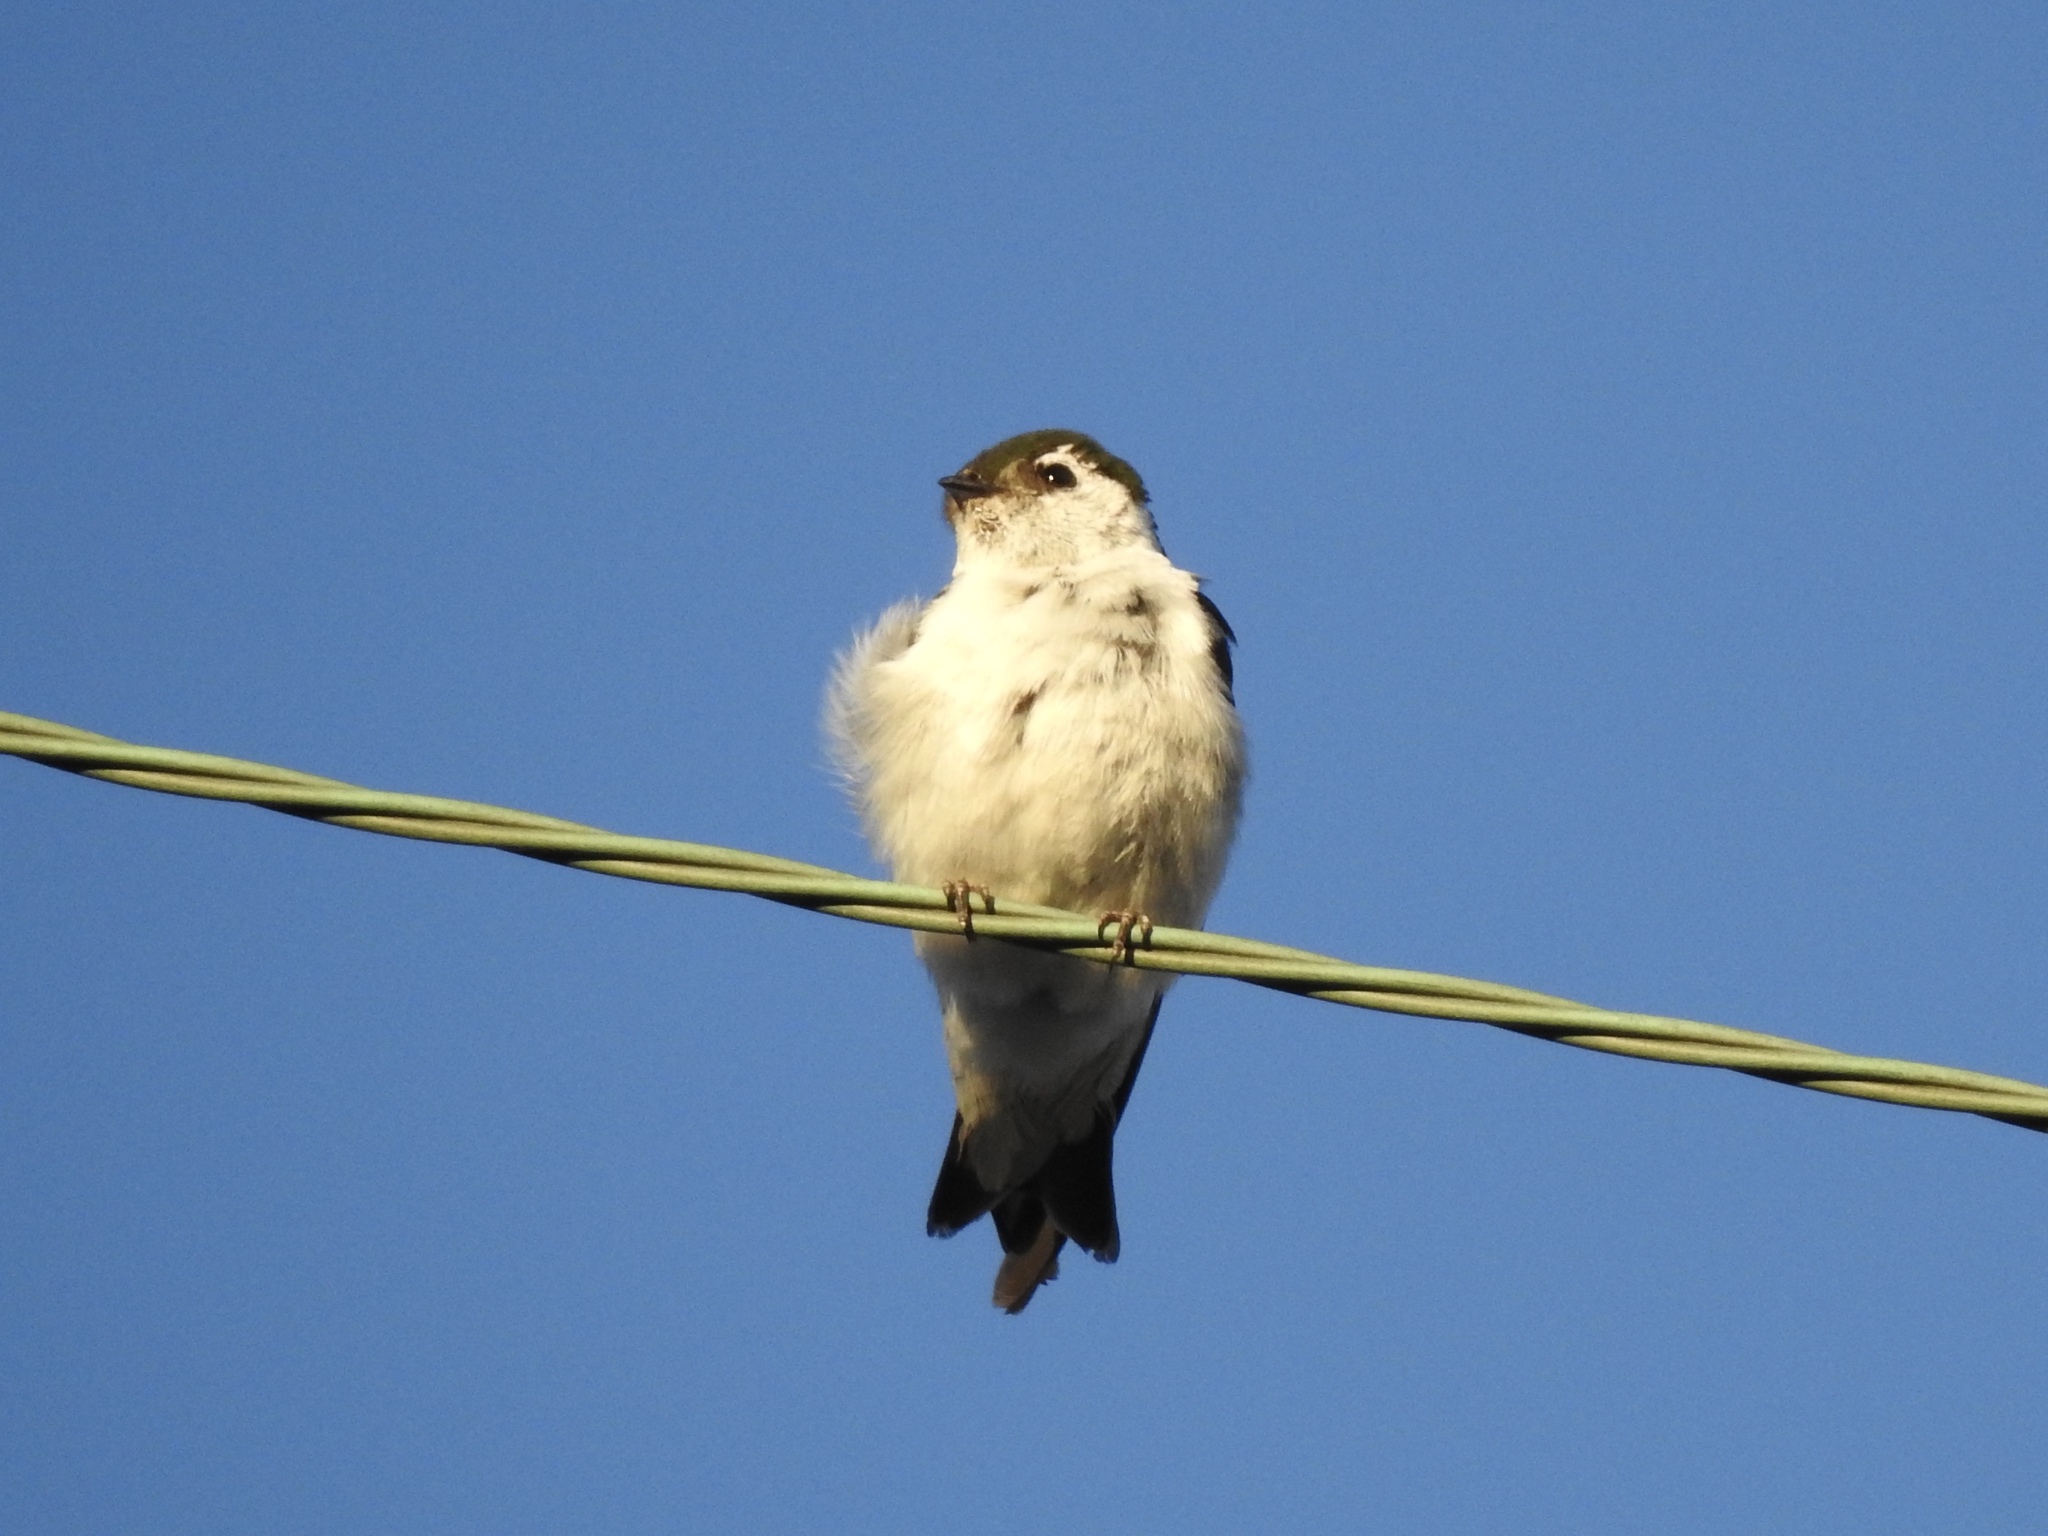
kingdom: Animalia
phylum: Chordata
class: Aves
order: Passeriformes
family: Hirundinidae
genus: Tachycineta
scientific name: Tachycineta thalassina
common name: Violet-green swallow
